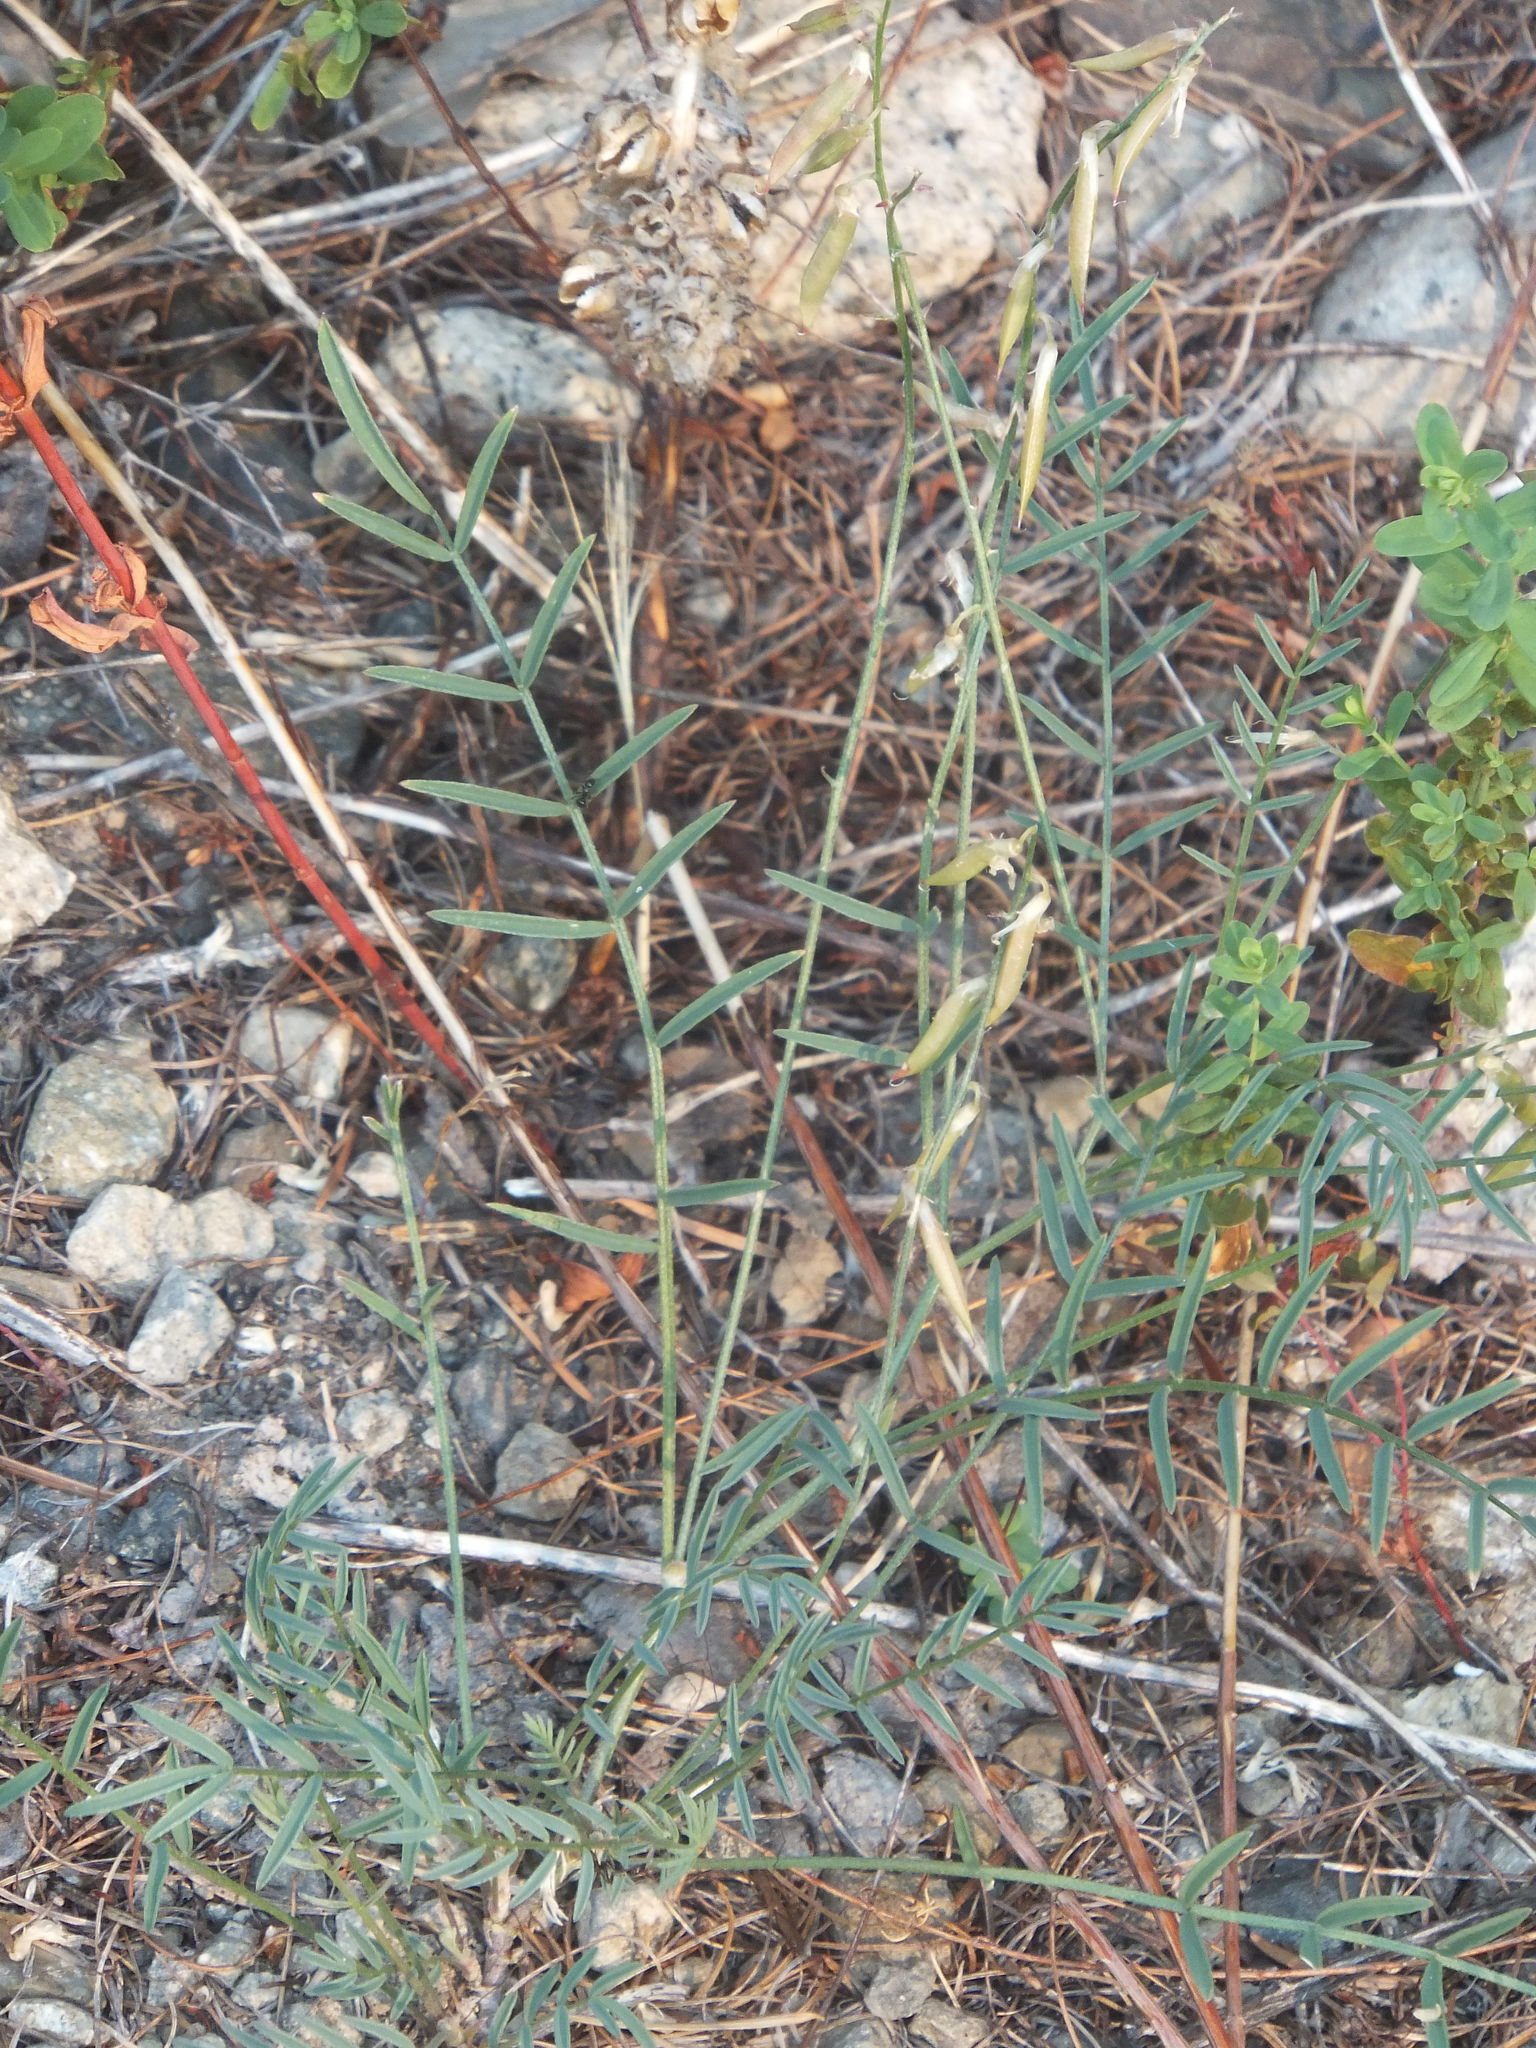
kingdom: Plantae
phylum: Tracheophyta
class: Magnoliopsida
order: Fabales
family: Fabaceae
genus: Astragalus
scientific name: Astragalus miser
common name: Timber milkvetch
